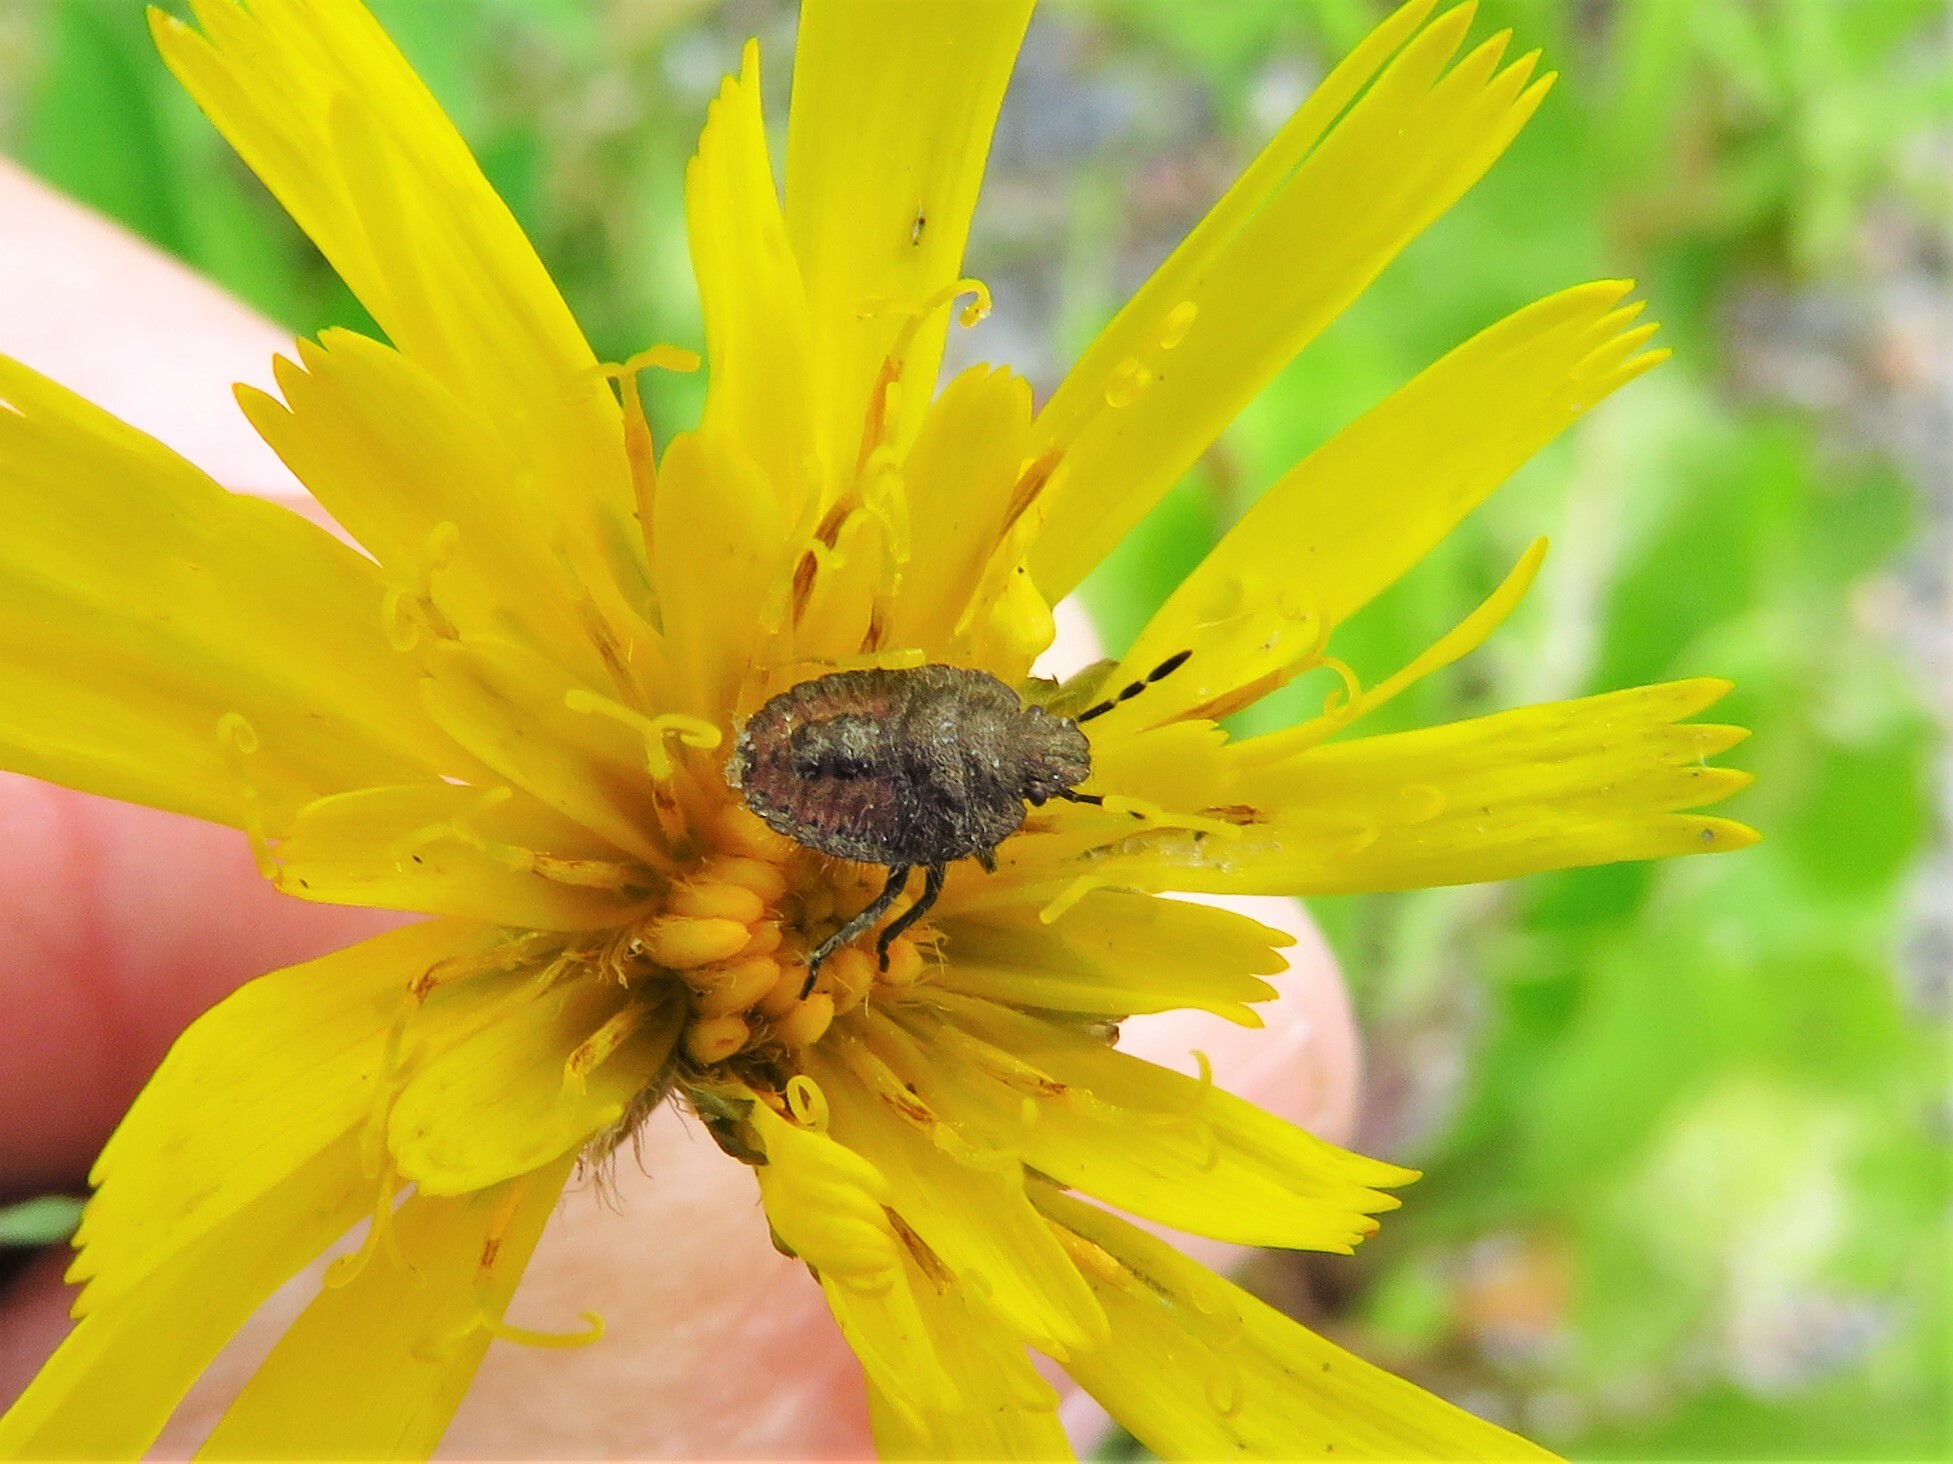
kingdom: Animalia
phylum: Arthropoda
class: Insecta
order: Hemiptera
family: Pentatomidae
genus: Dolycoris
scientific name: Dolycoris baccarum
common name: Sloe bug
